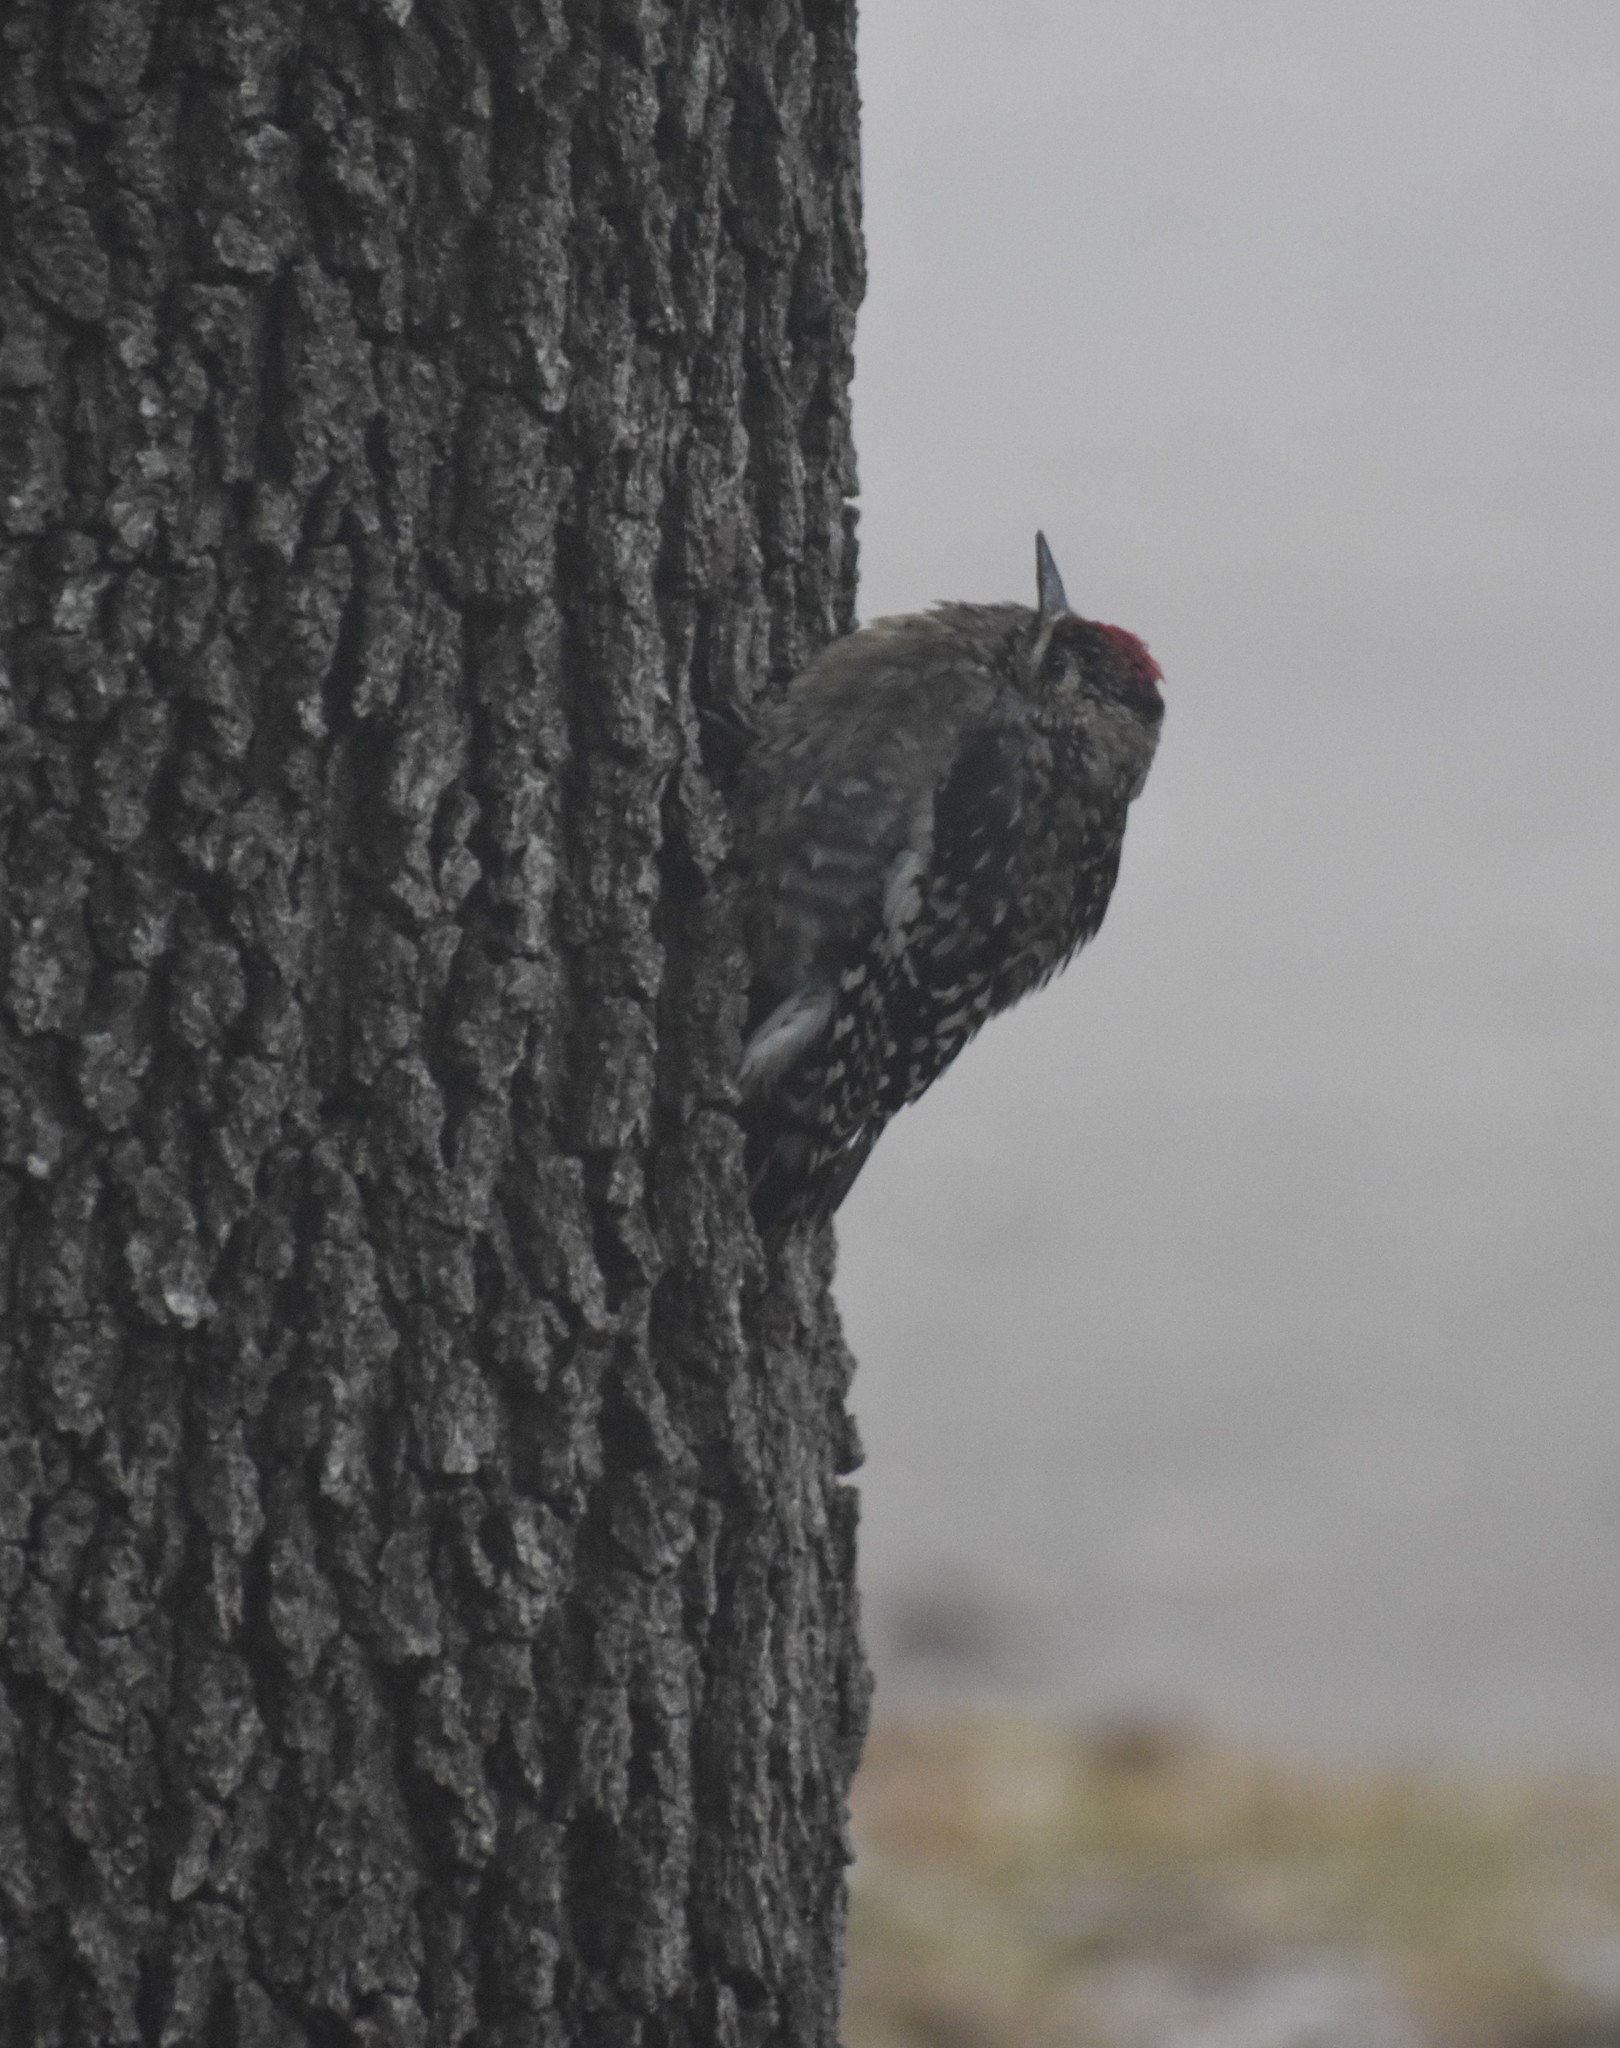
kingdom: Animalia
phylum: Chordata
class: Aves
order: Piciformes
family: Picidae
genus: Sphyrapicus
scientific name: Sphyrapicus varius
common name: Yellow-bellied sapsucker
